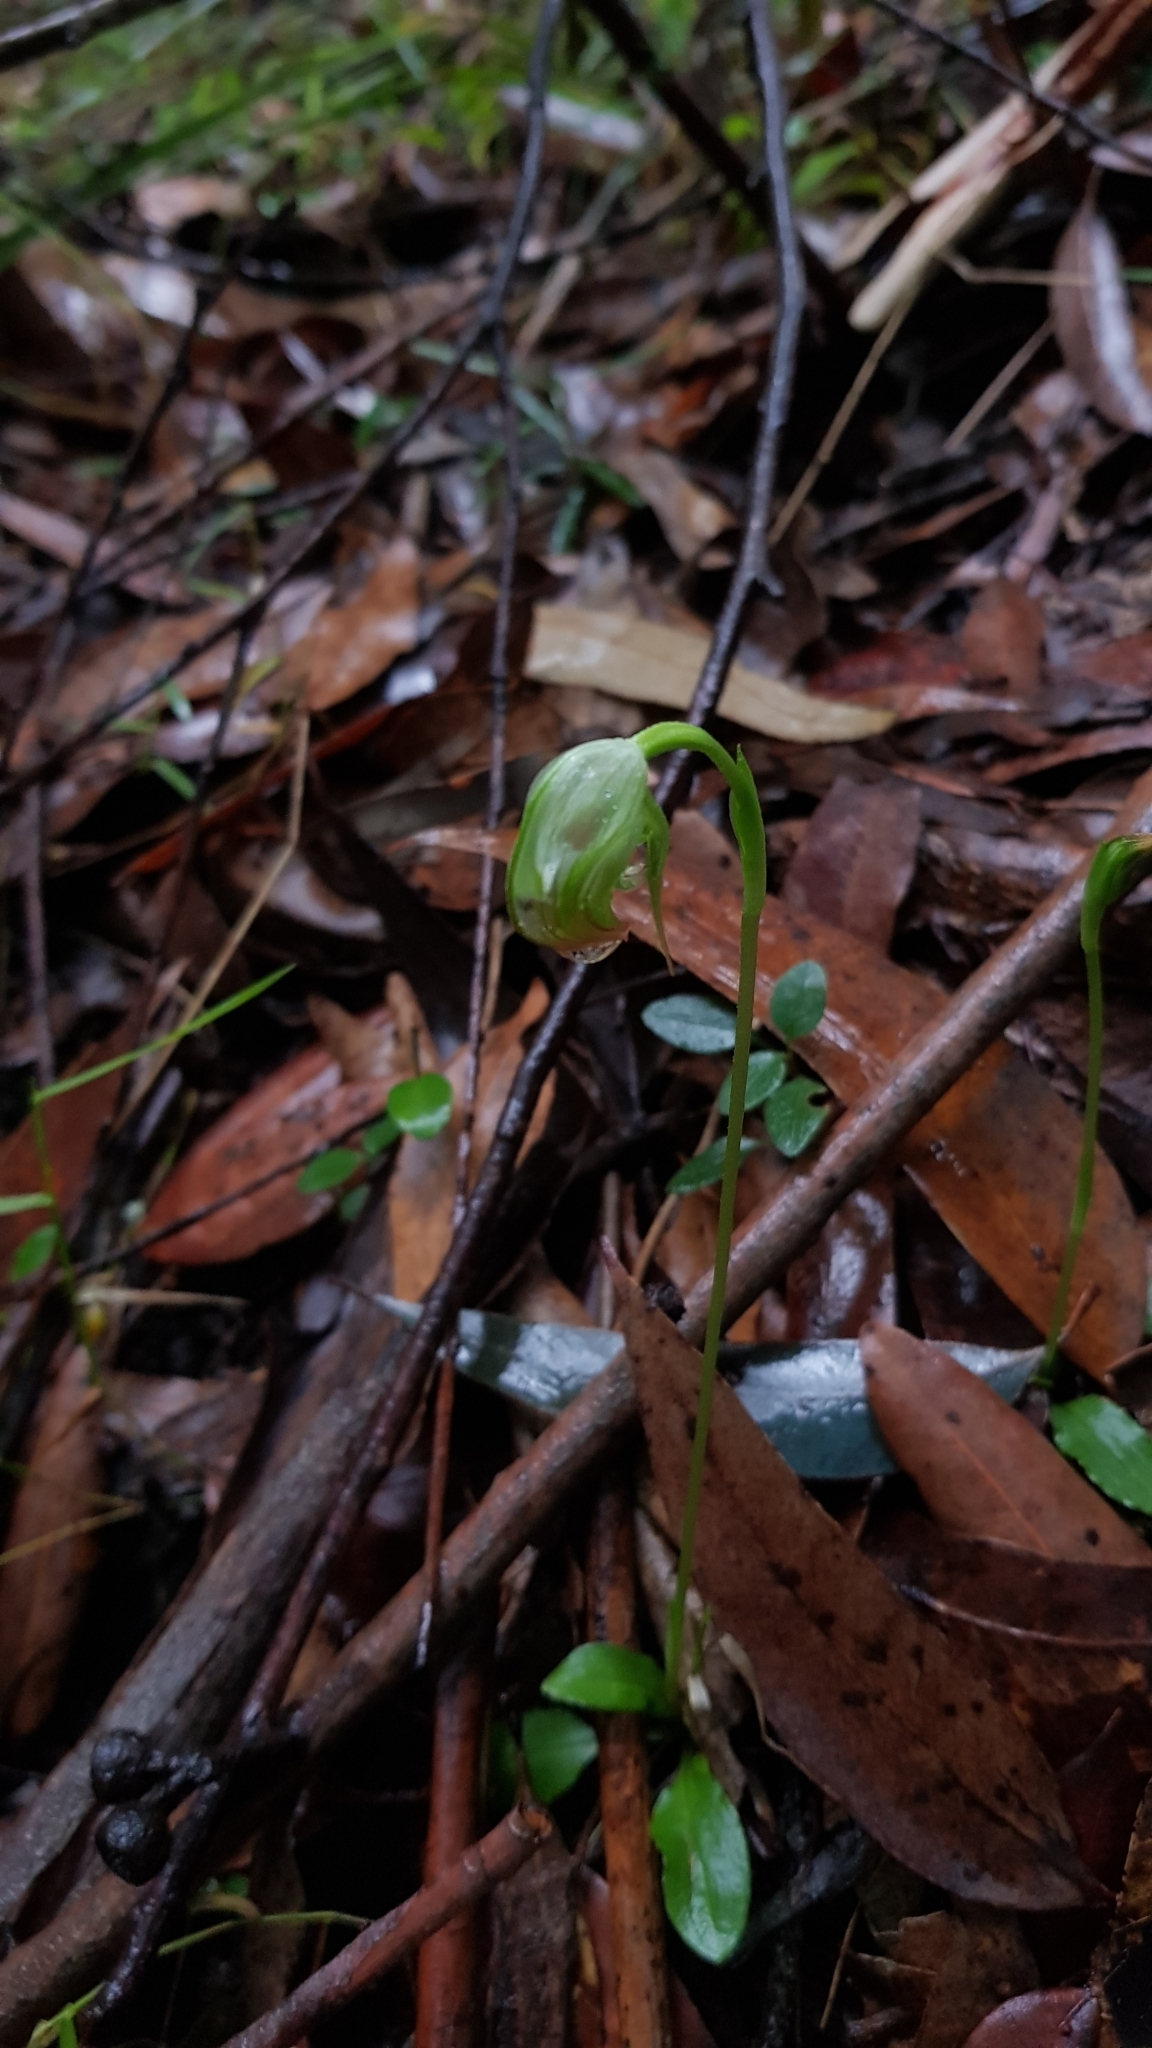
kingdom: Plantae
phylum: Tracheophyta
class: Liliopsida
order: Asparagales
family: Orchidaceae
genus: Pterostylis
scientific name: Pterostylis nutans
